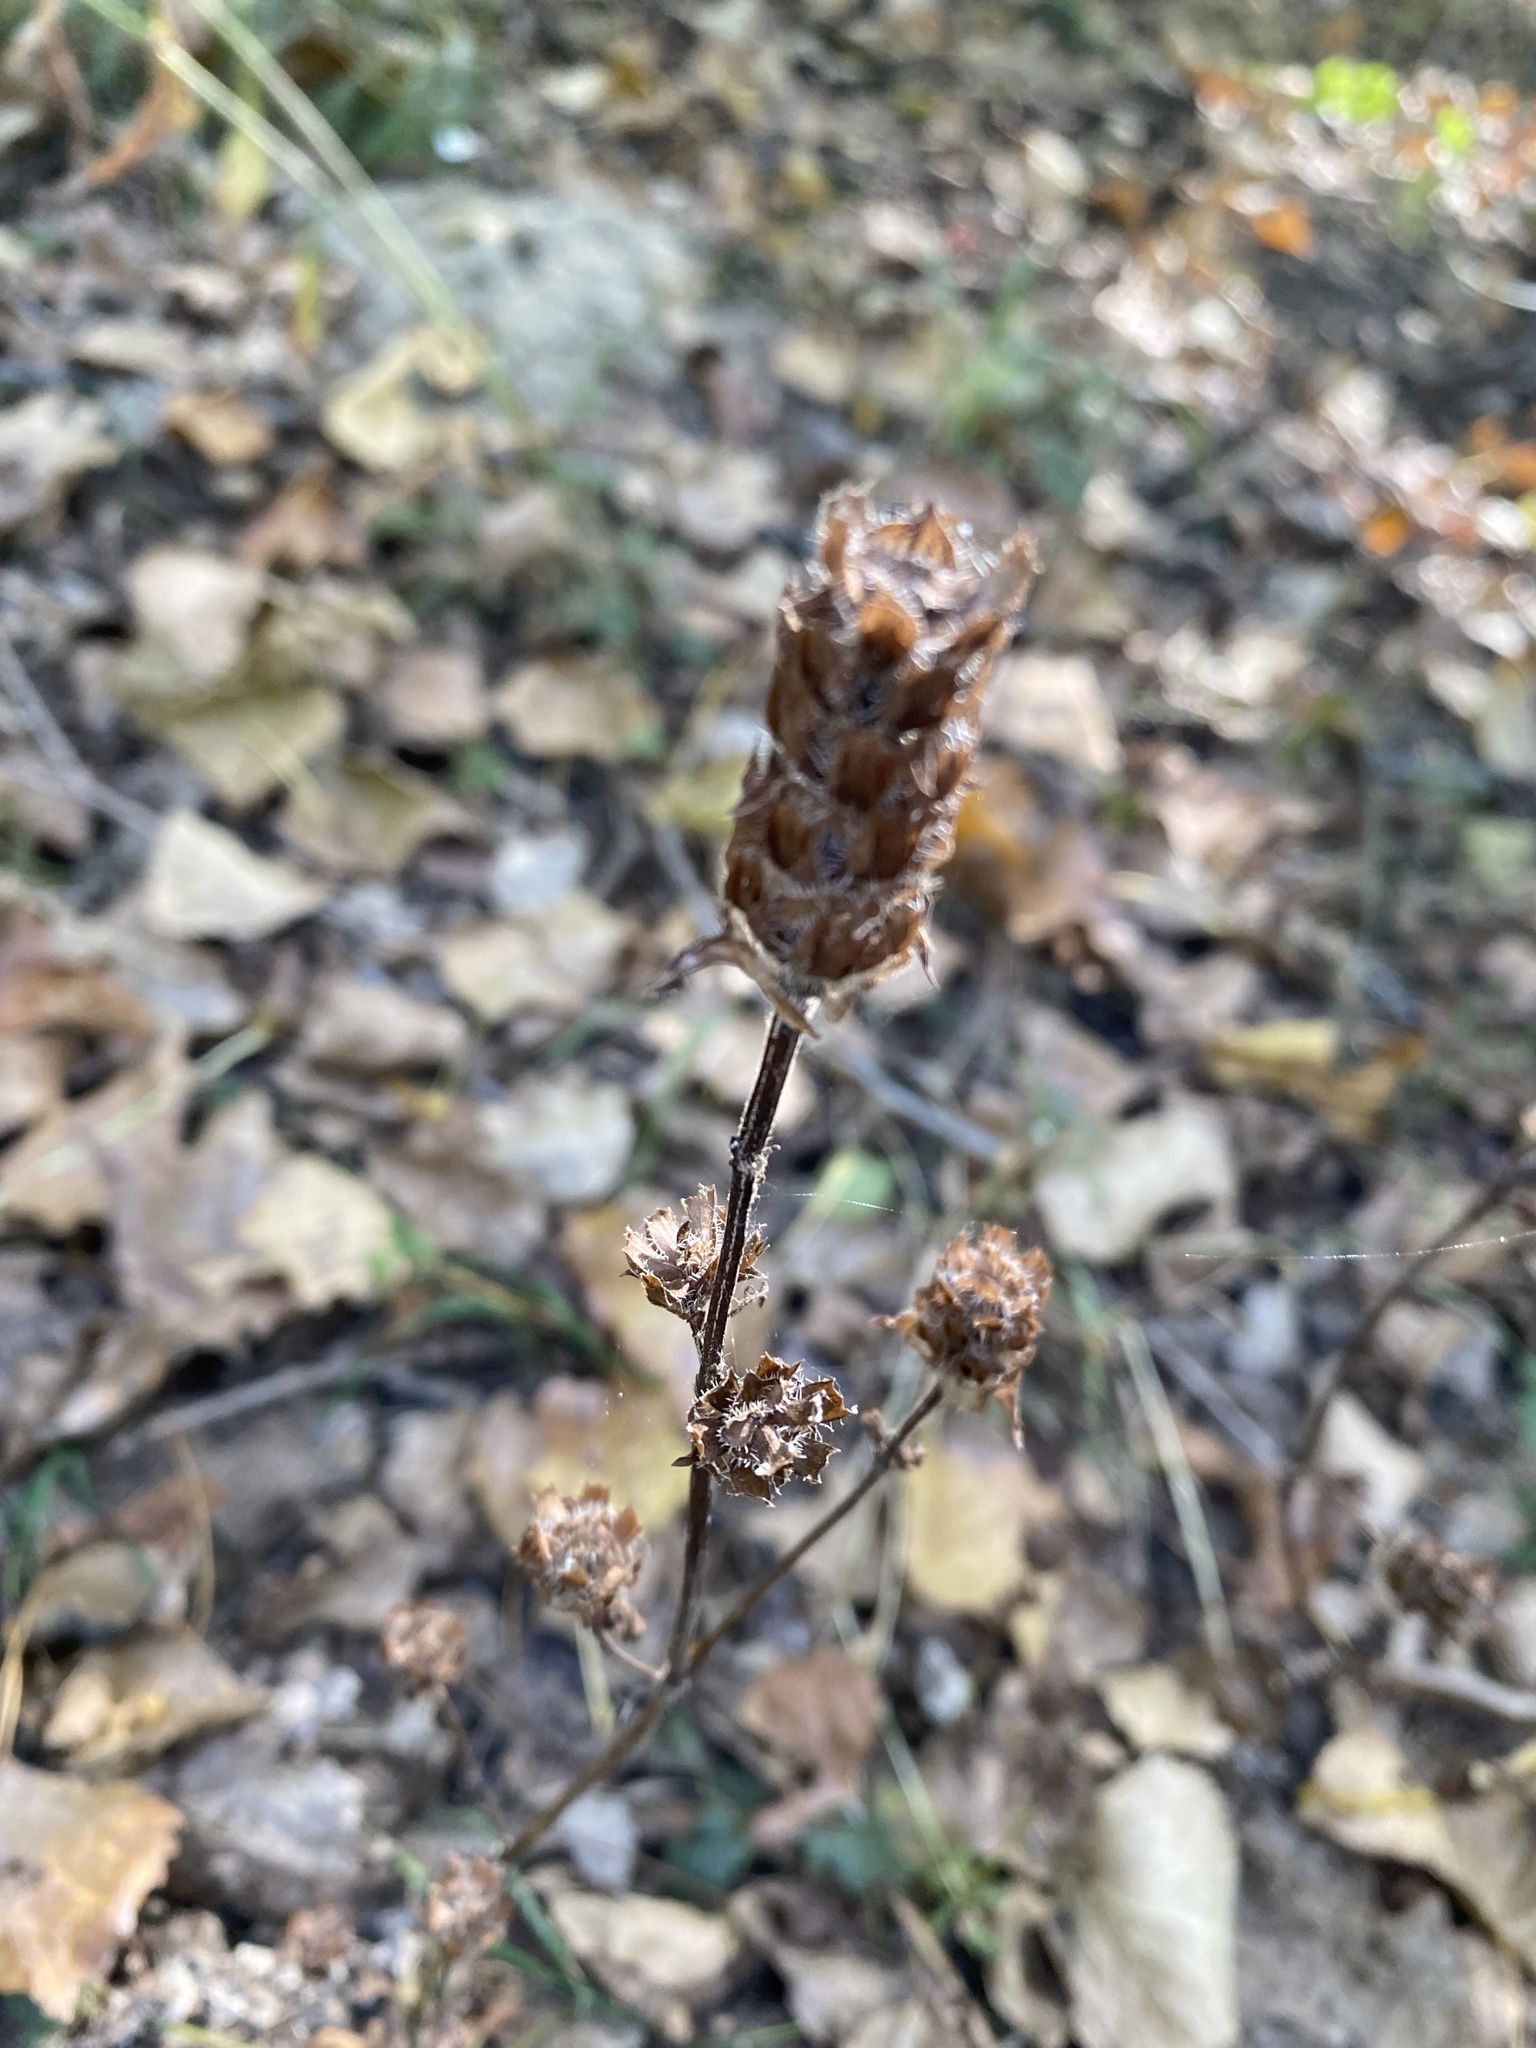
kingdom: Plantae
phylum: Tracheophyta
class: Magnoliopsida
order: Lamiales
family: Lamiaceae
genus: Prunella
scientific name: Prunella vulgaris
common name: Heal-all
